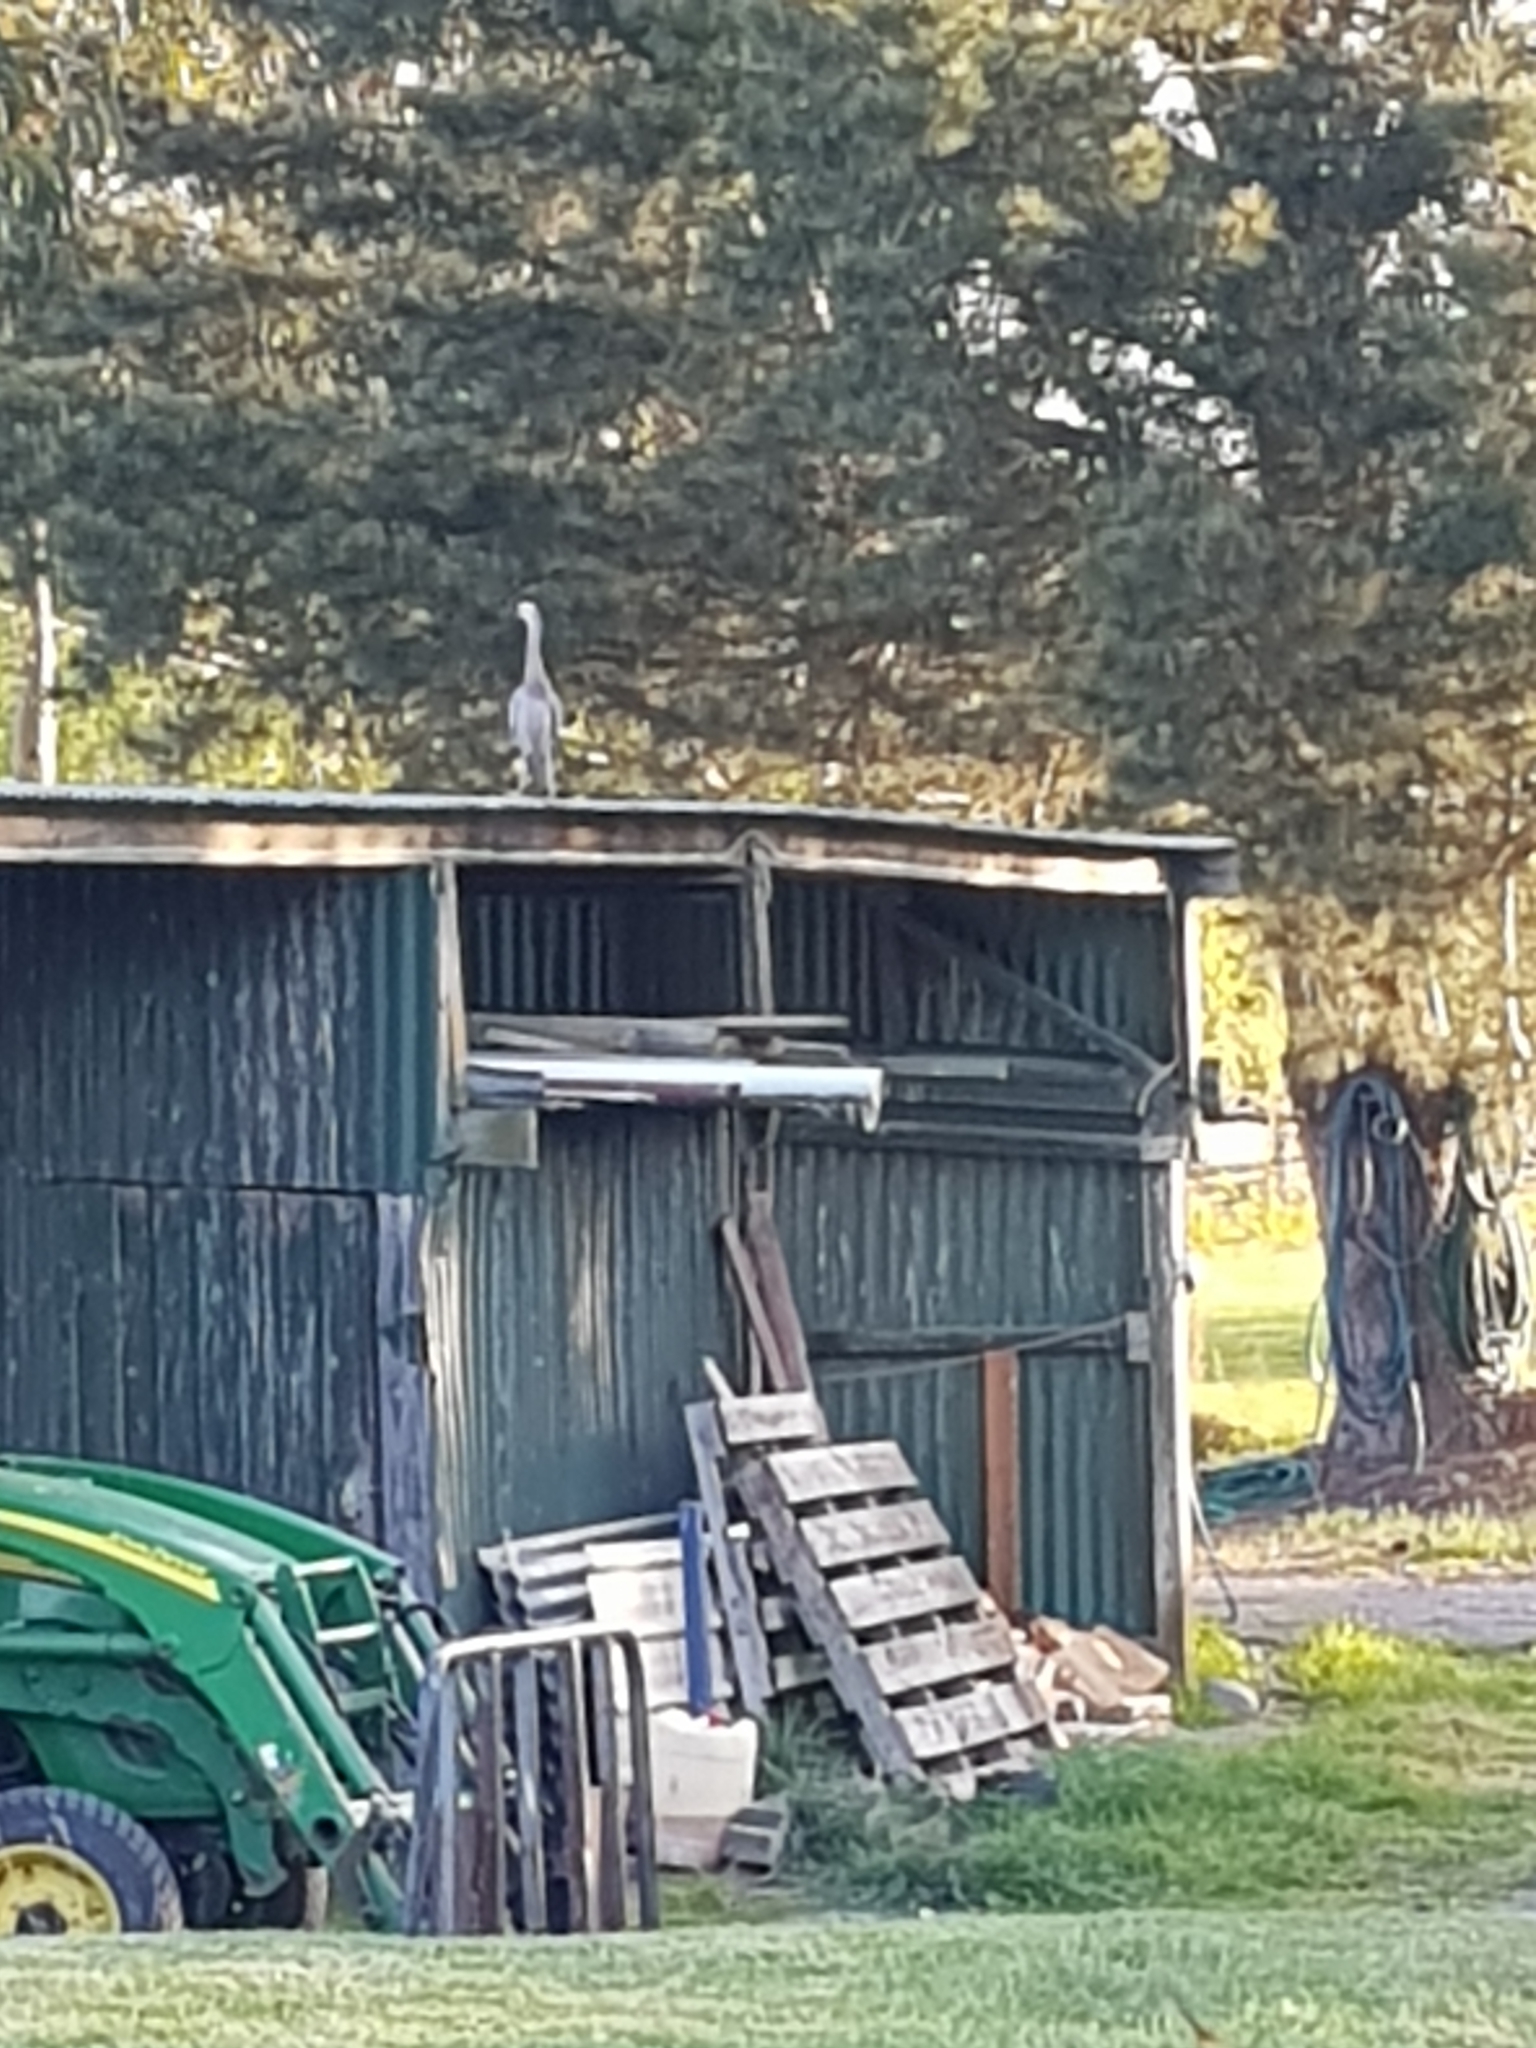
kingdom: Animalia
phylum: Chordata
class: Aves
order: Pelecaniformes
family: Ardeidae
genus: Egretta
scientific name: Egretta novaehollandiae
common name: White-faced heron
